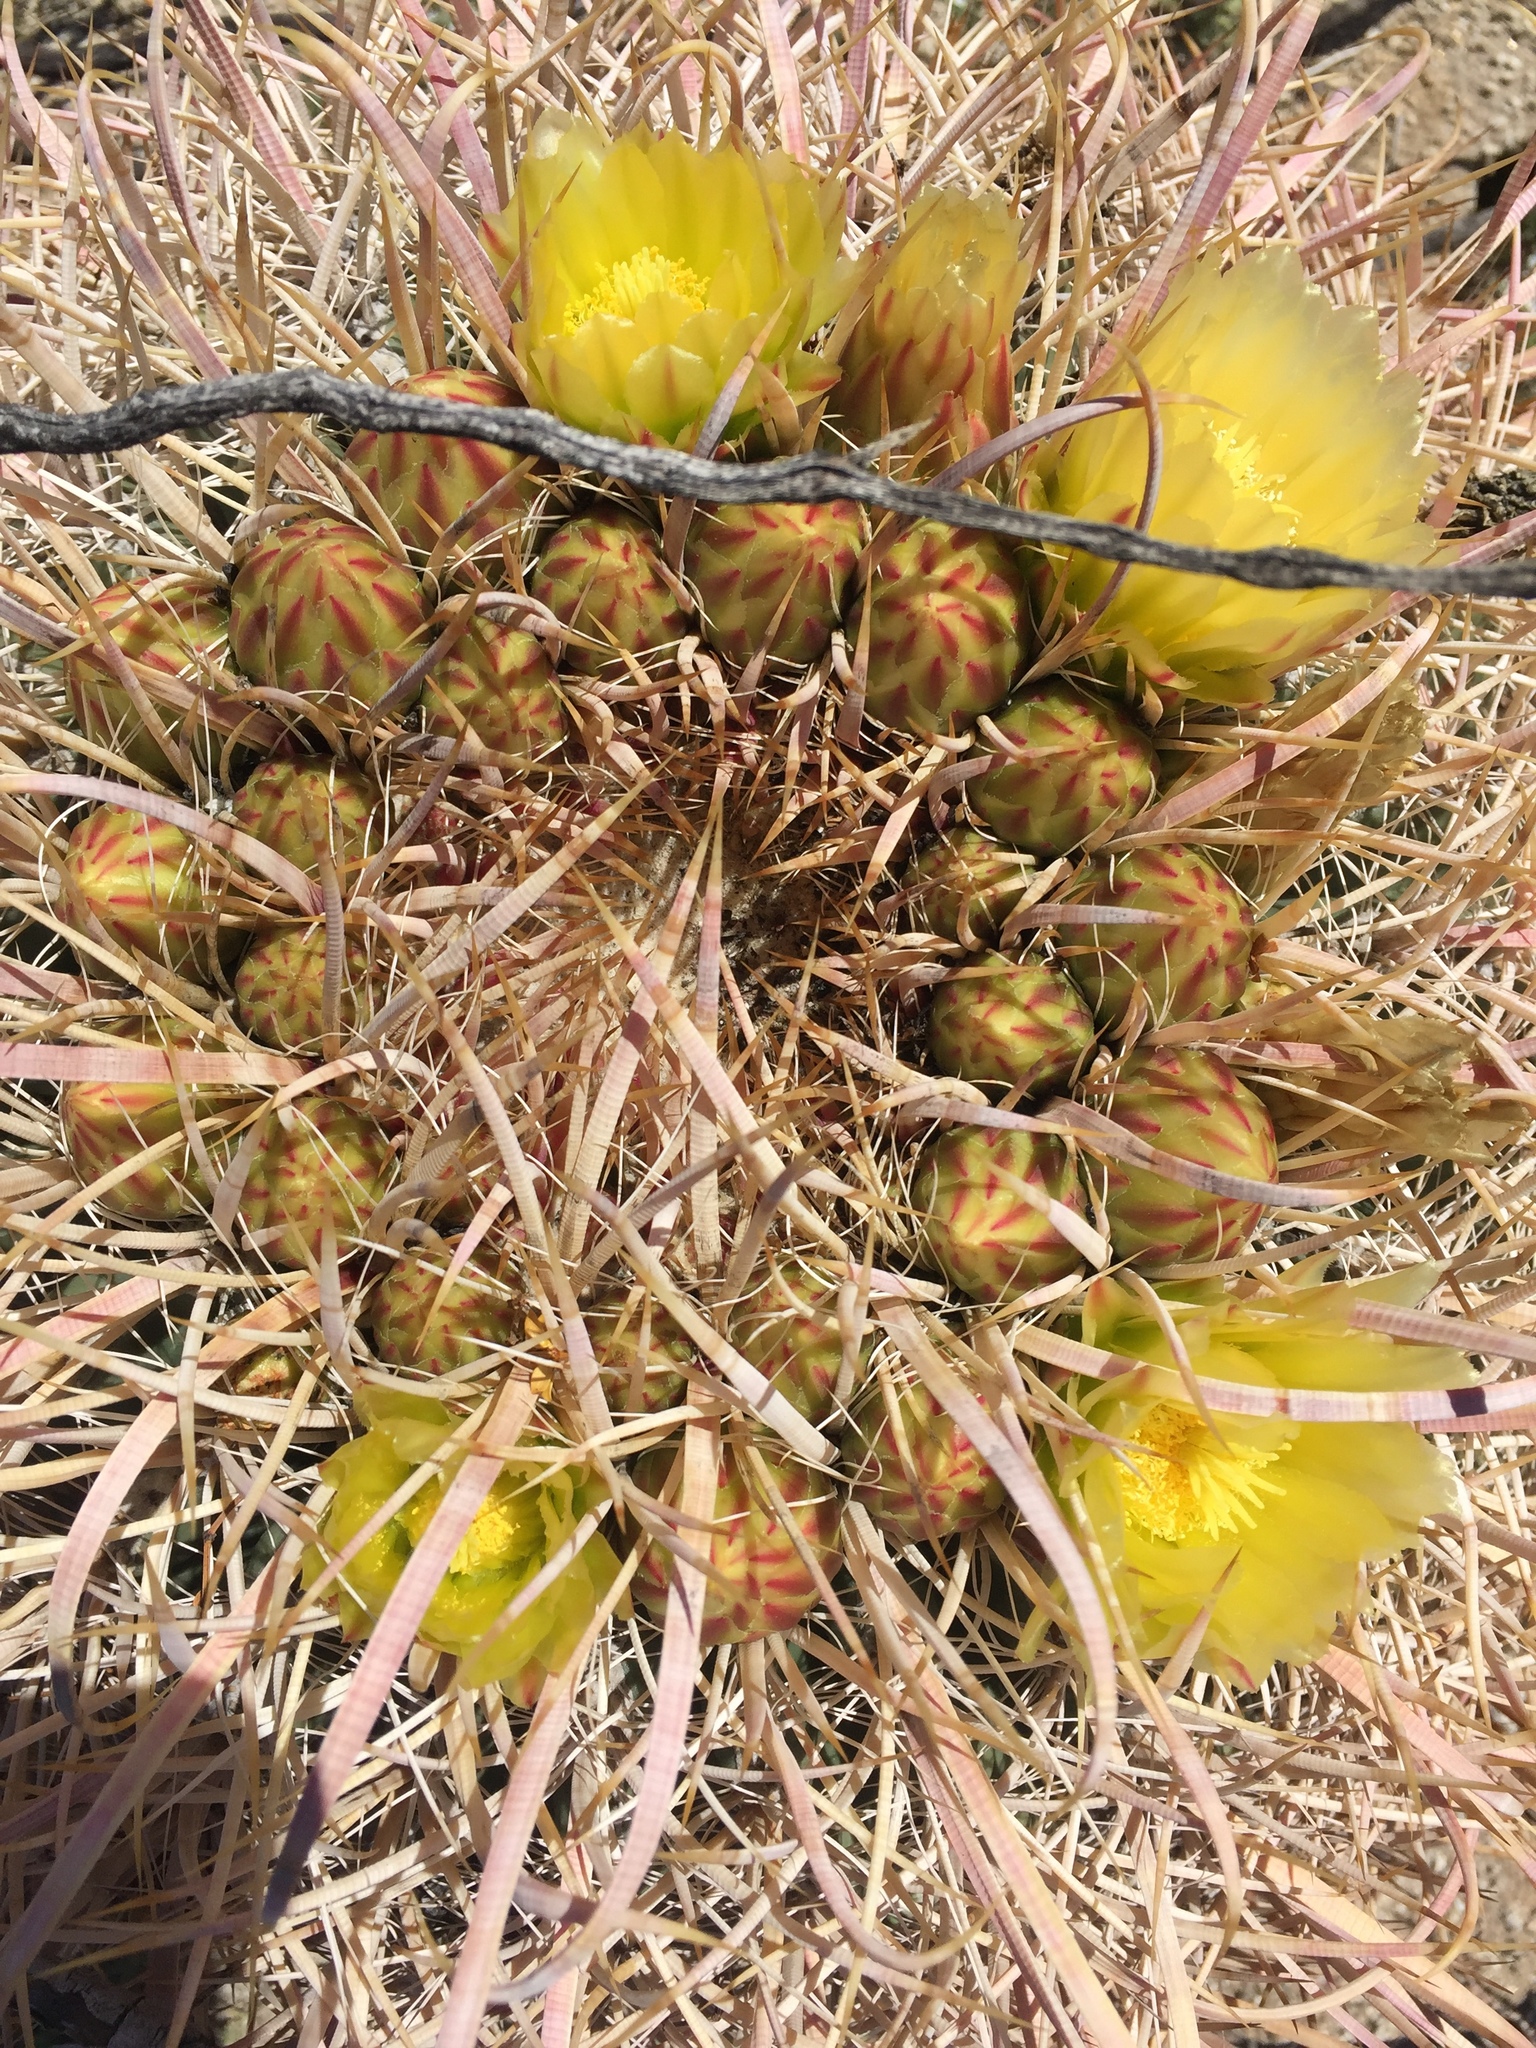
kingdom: Plantae
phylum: Tracheophyta
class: Magnoliopsida
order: Caryophyllales
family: Cactaceae
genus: Ferocactus
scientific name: Ferocactus cylindraceus
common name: California barrel cactus
